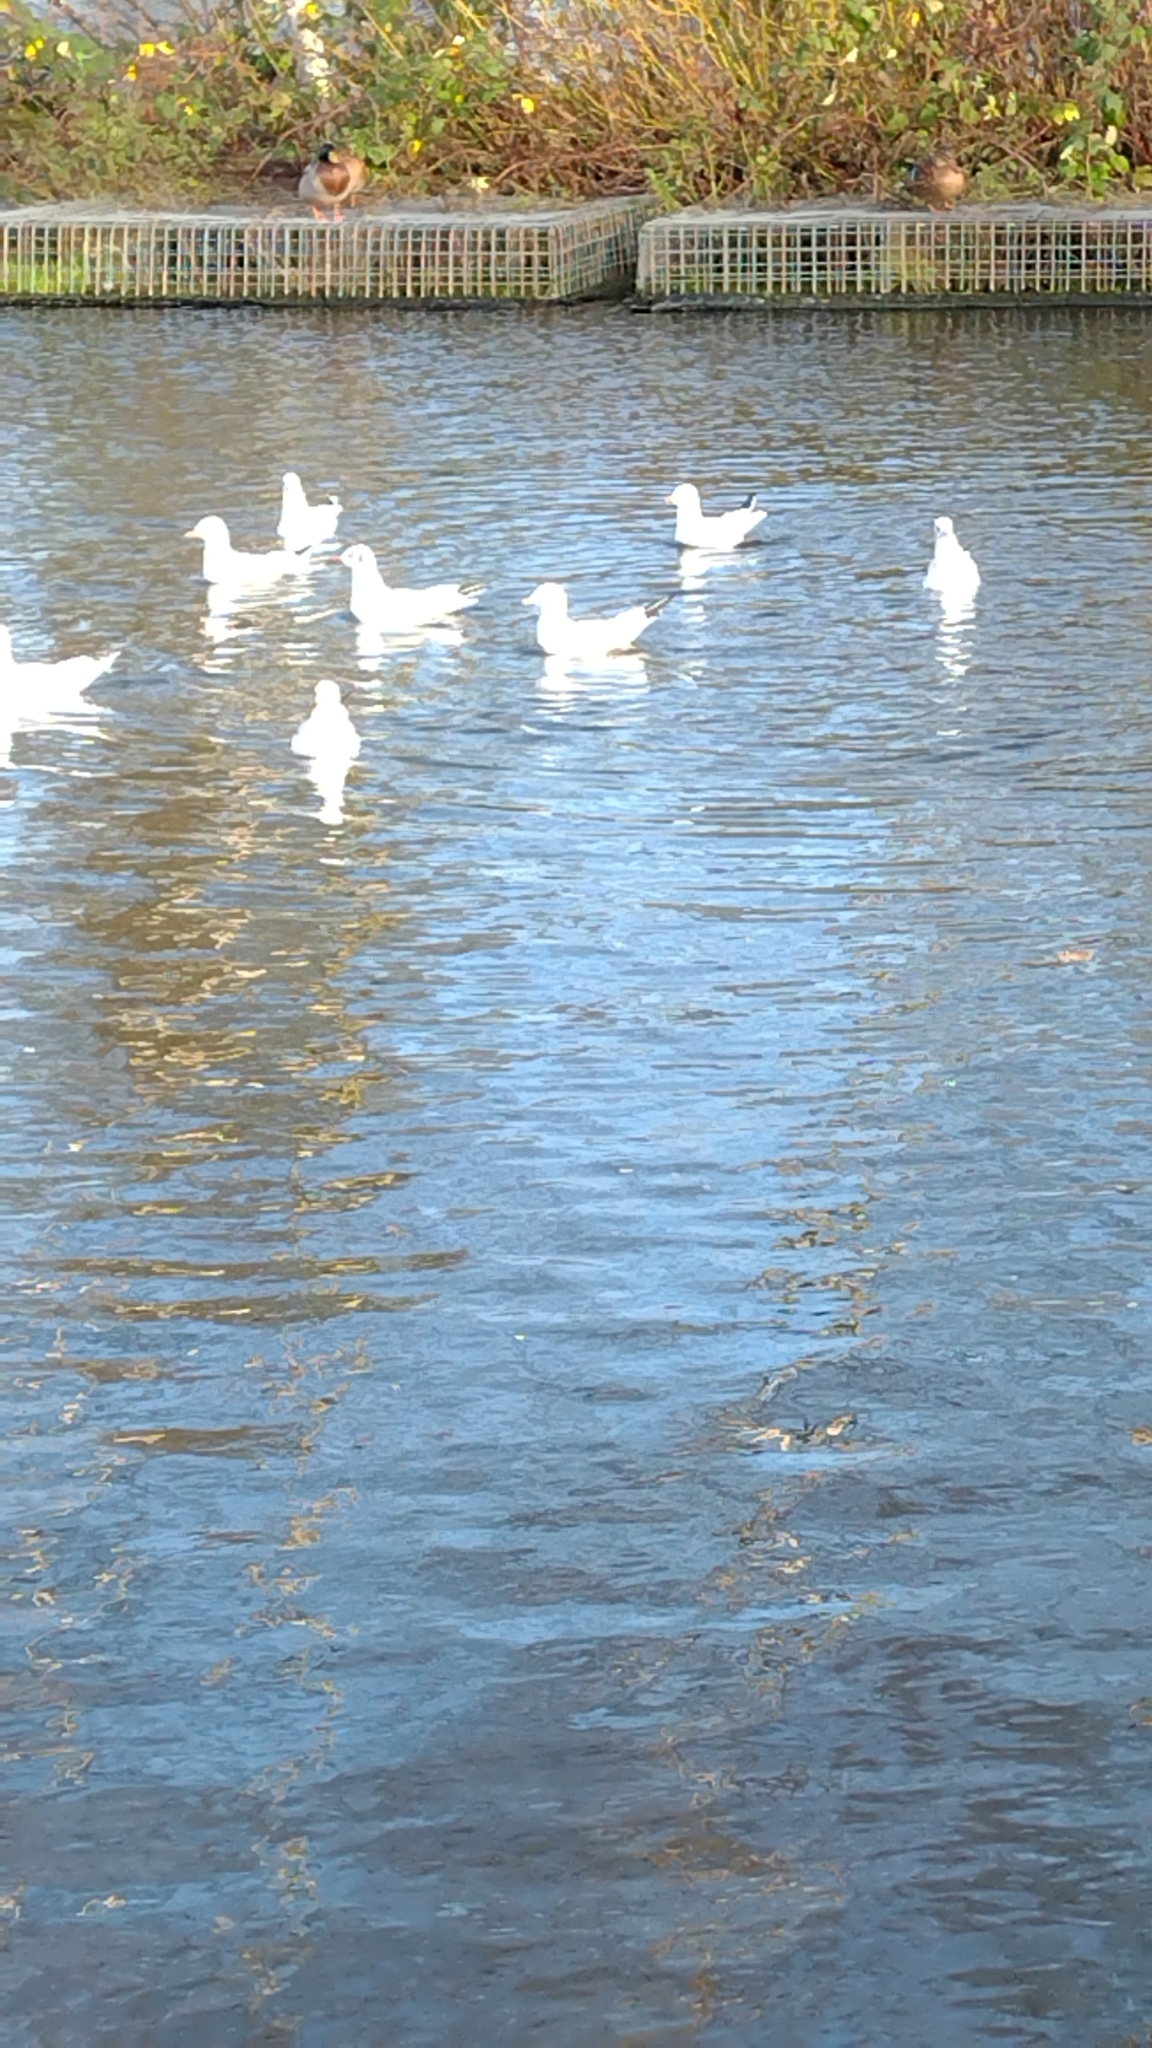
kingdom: Animalia
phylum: Chordata
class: Aves
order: Charadriiformes
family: Laridae
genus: Chroicocephalus
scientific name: Chroicocephalus ridibundus
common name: Black-headed gull
